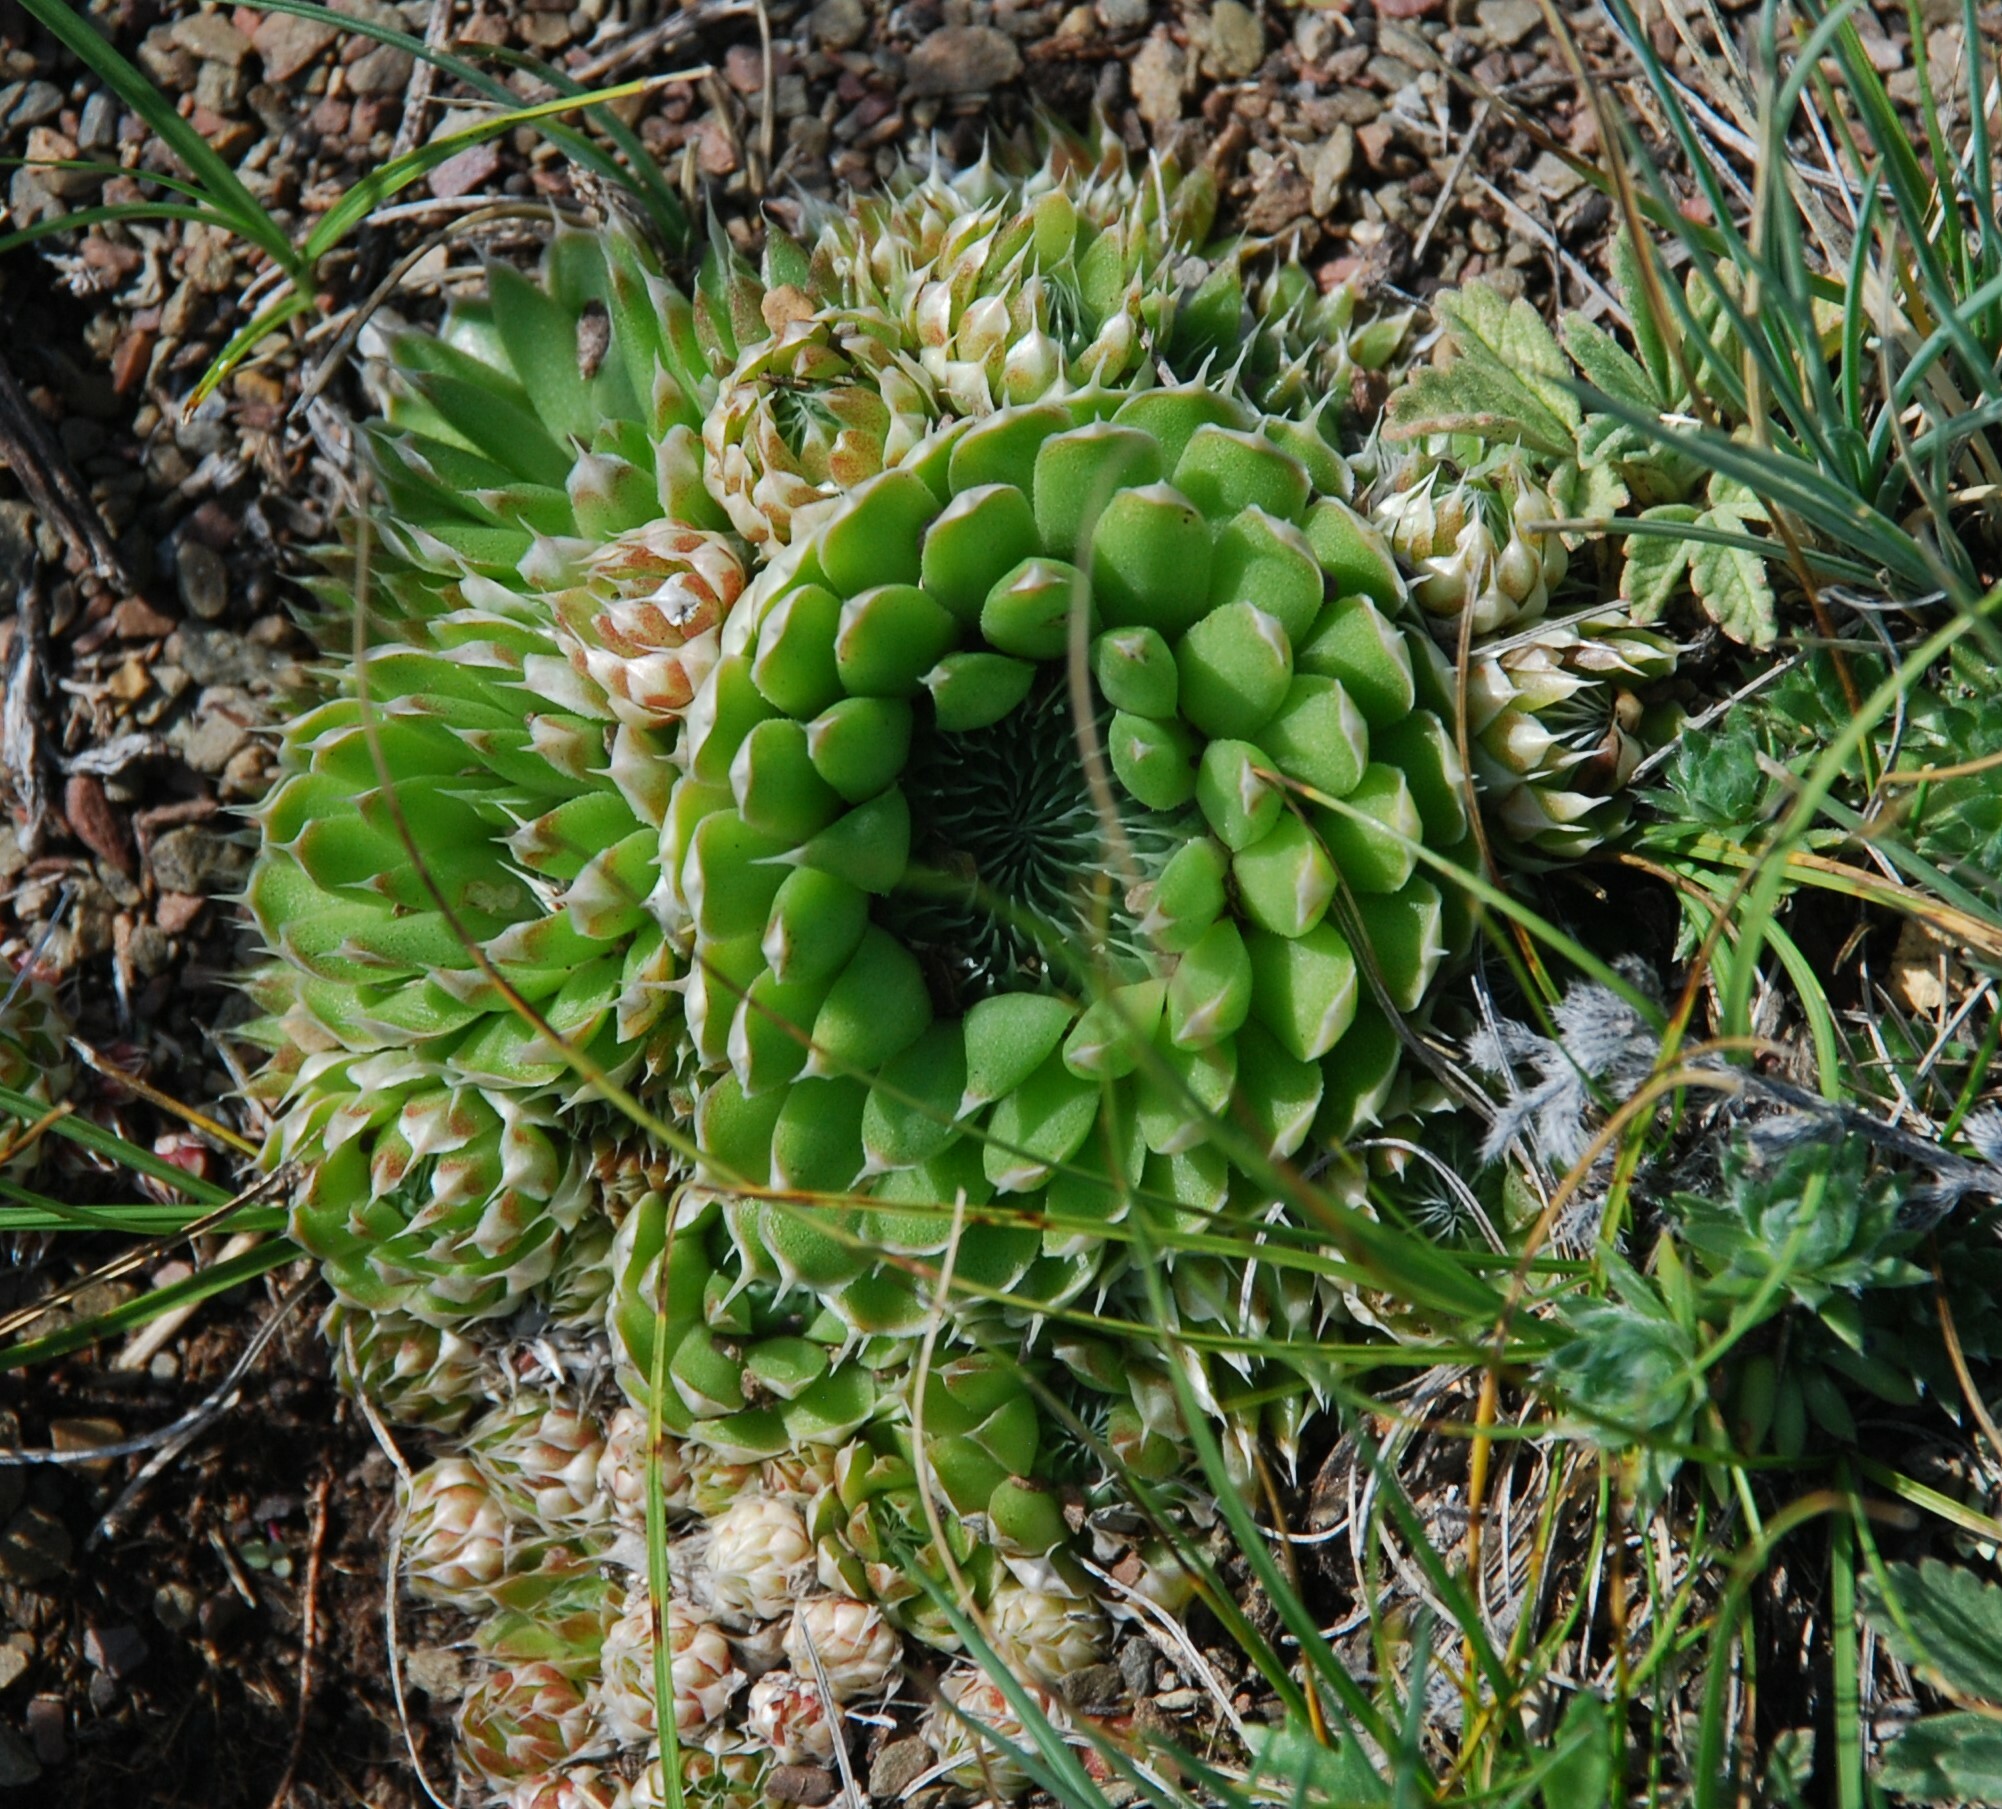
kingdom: Plantae
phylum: Tracheophyta
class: Magnoliopsida
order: Saxifragales
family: Crassulaceae
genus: Orostachys
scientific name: Orostachys spinosa
